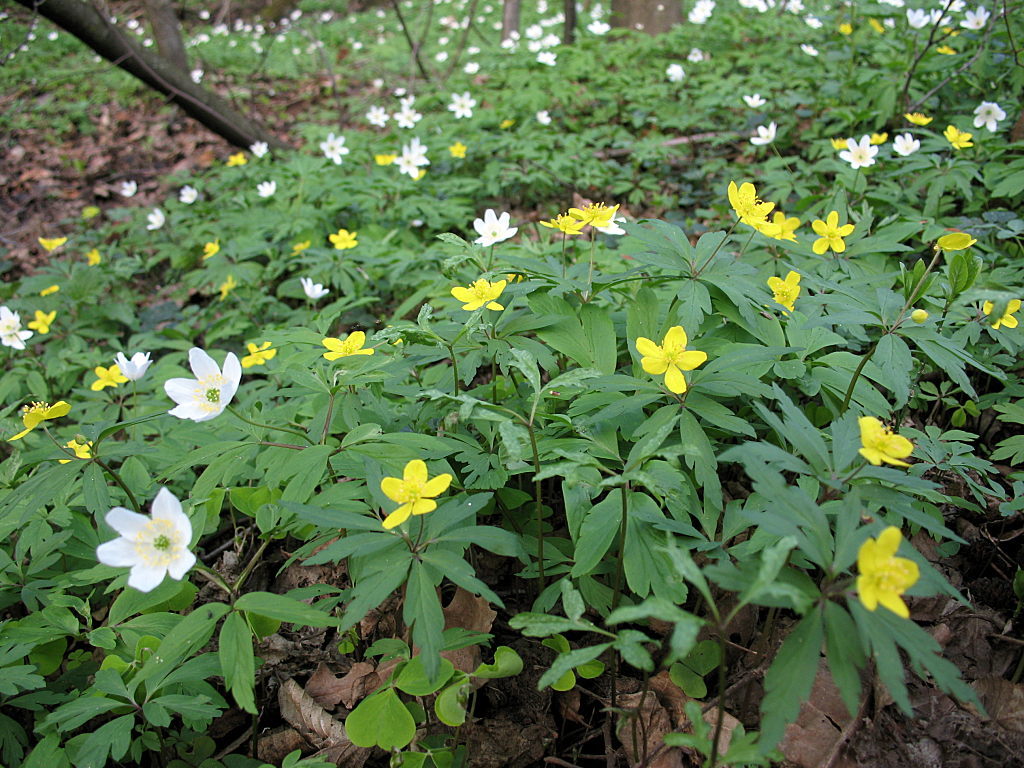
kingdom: Plantae
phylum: Tracheophyta
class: Magnoliopsida
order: Ranunculales
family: Ranunculaceae
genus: Anemone
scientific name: Anemone ranunculoides
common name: Yellow anemone
